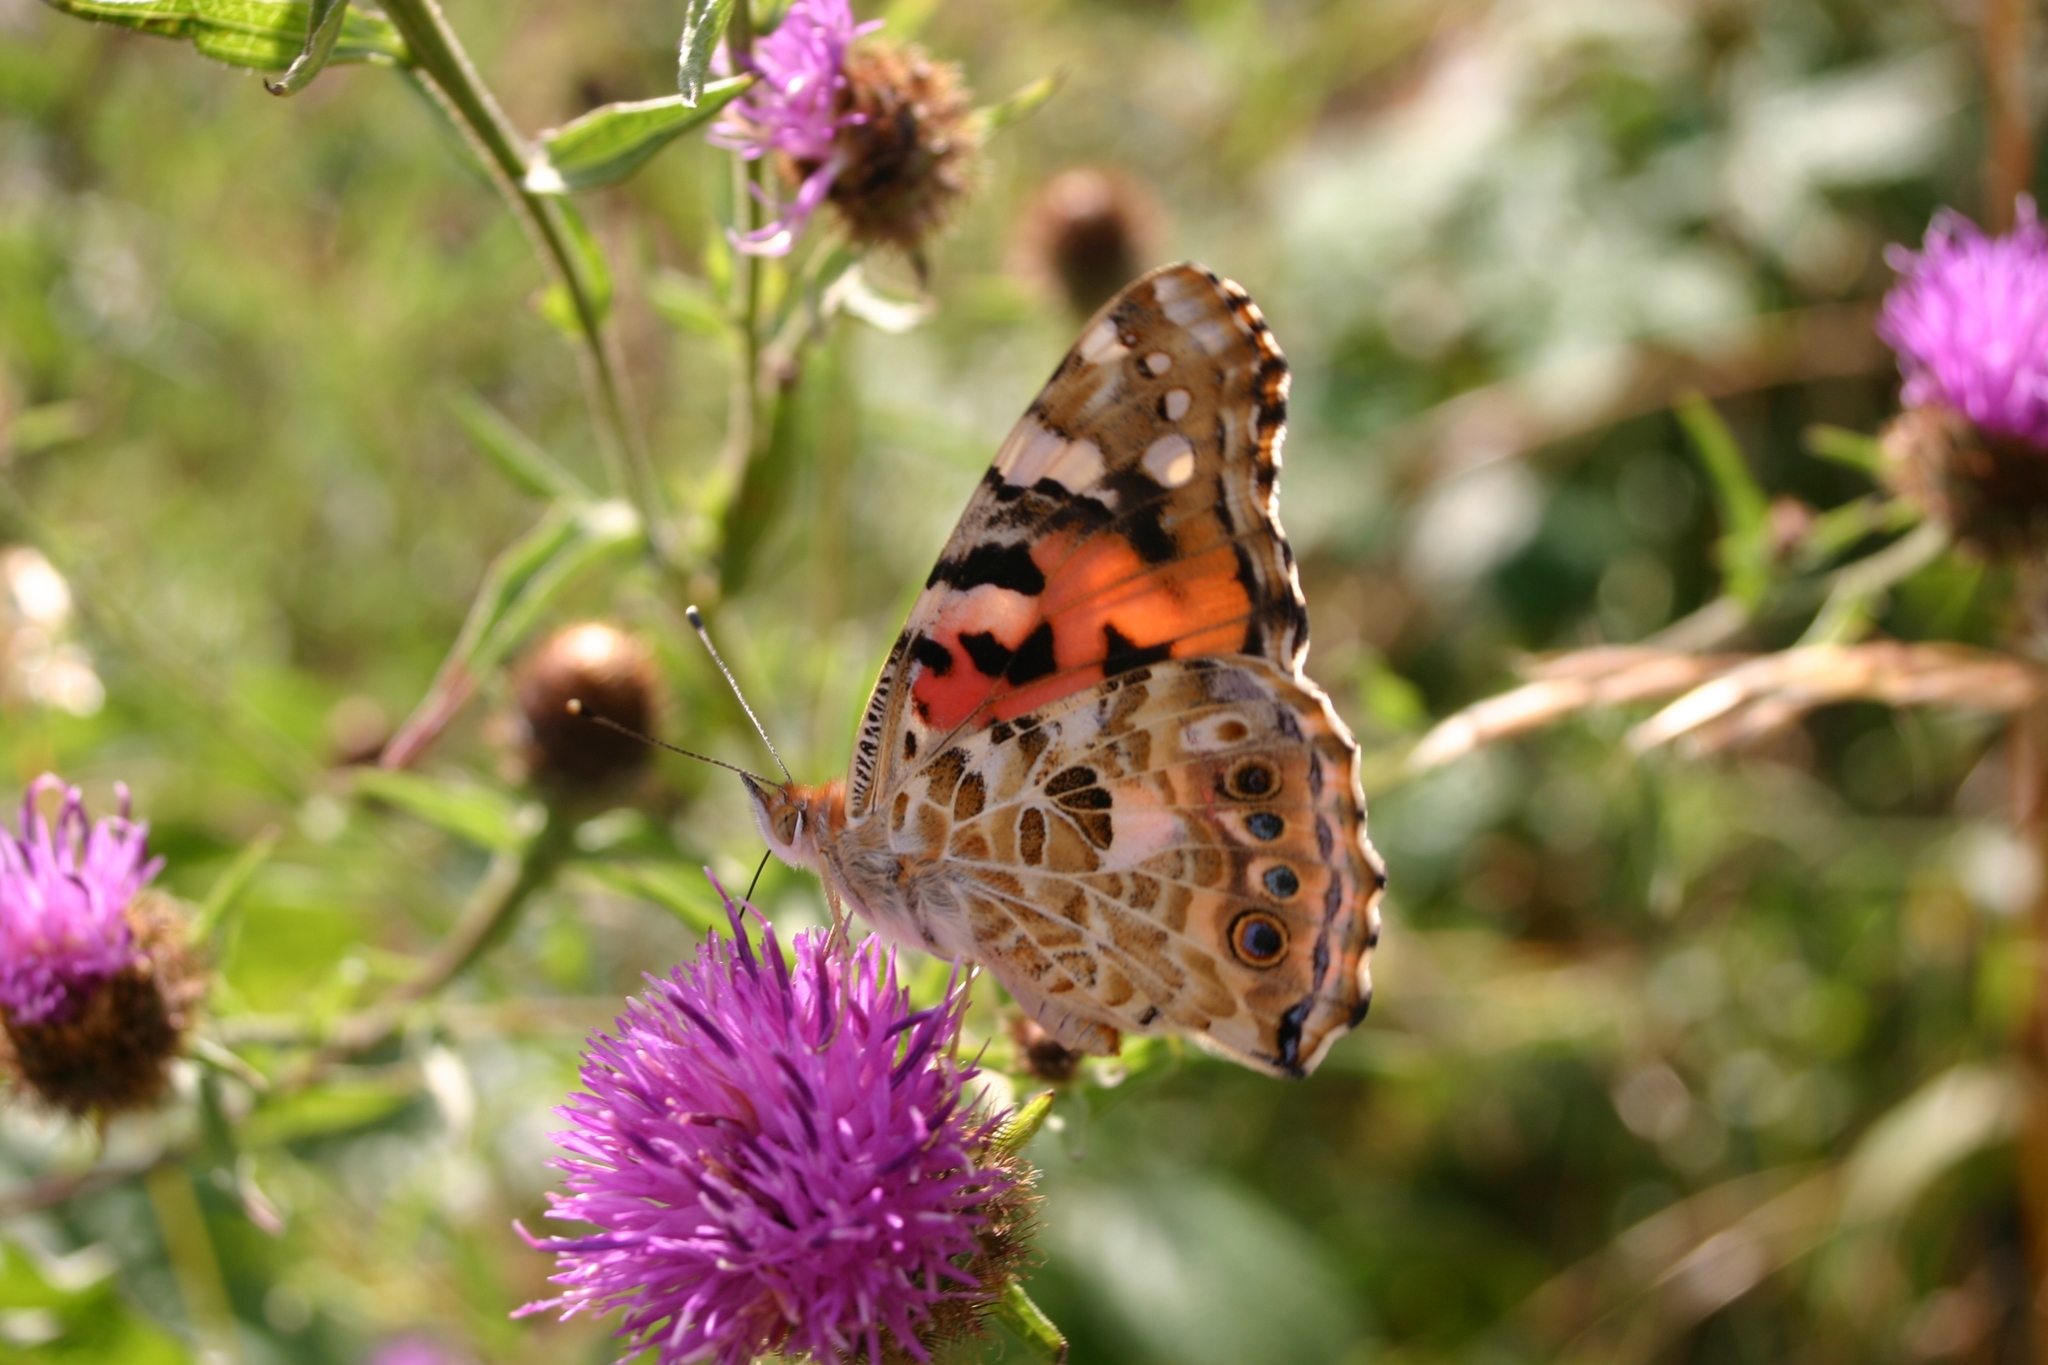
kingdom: Animalia
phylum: Arthropoda
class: Insecta
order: Lepidoptera
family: Nymphalidae
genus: Vanessa
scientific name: Vanessa cardui
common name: Painted lady
